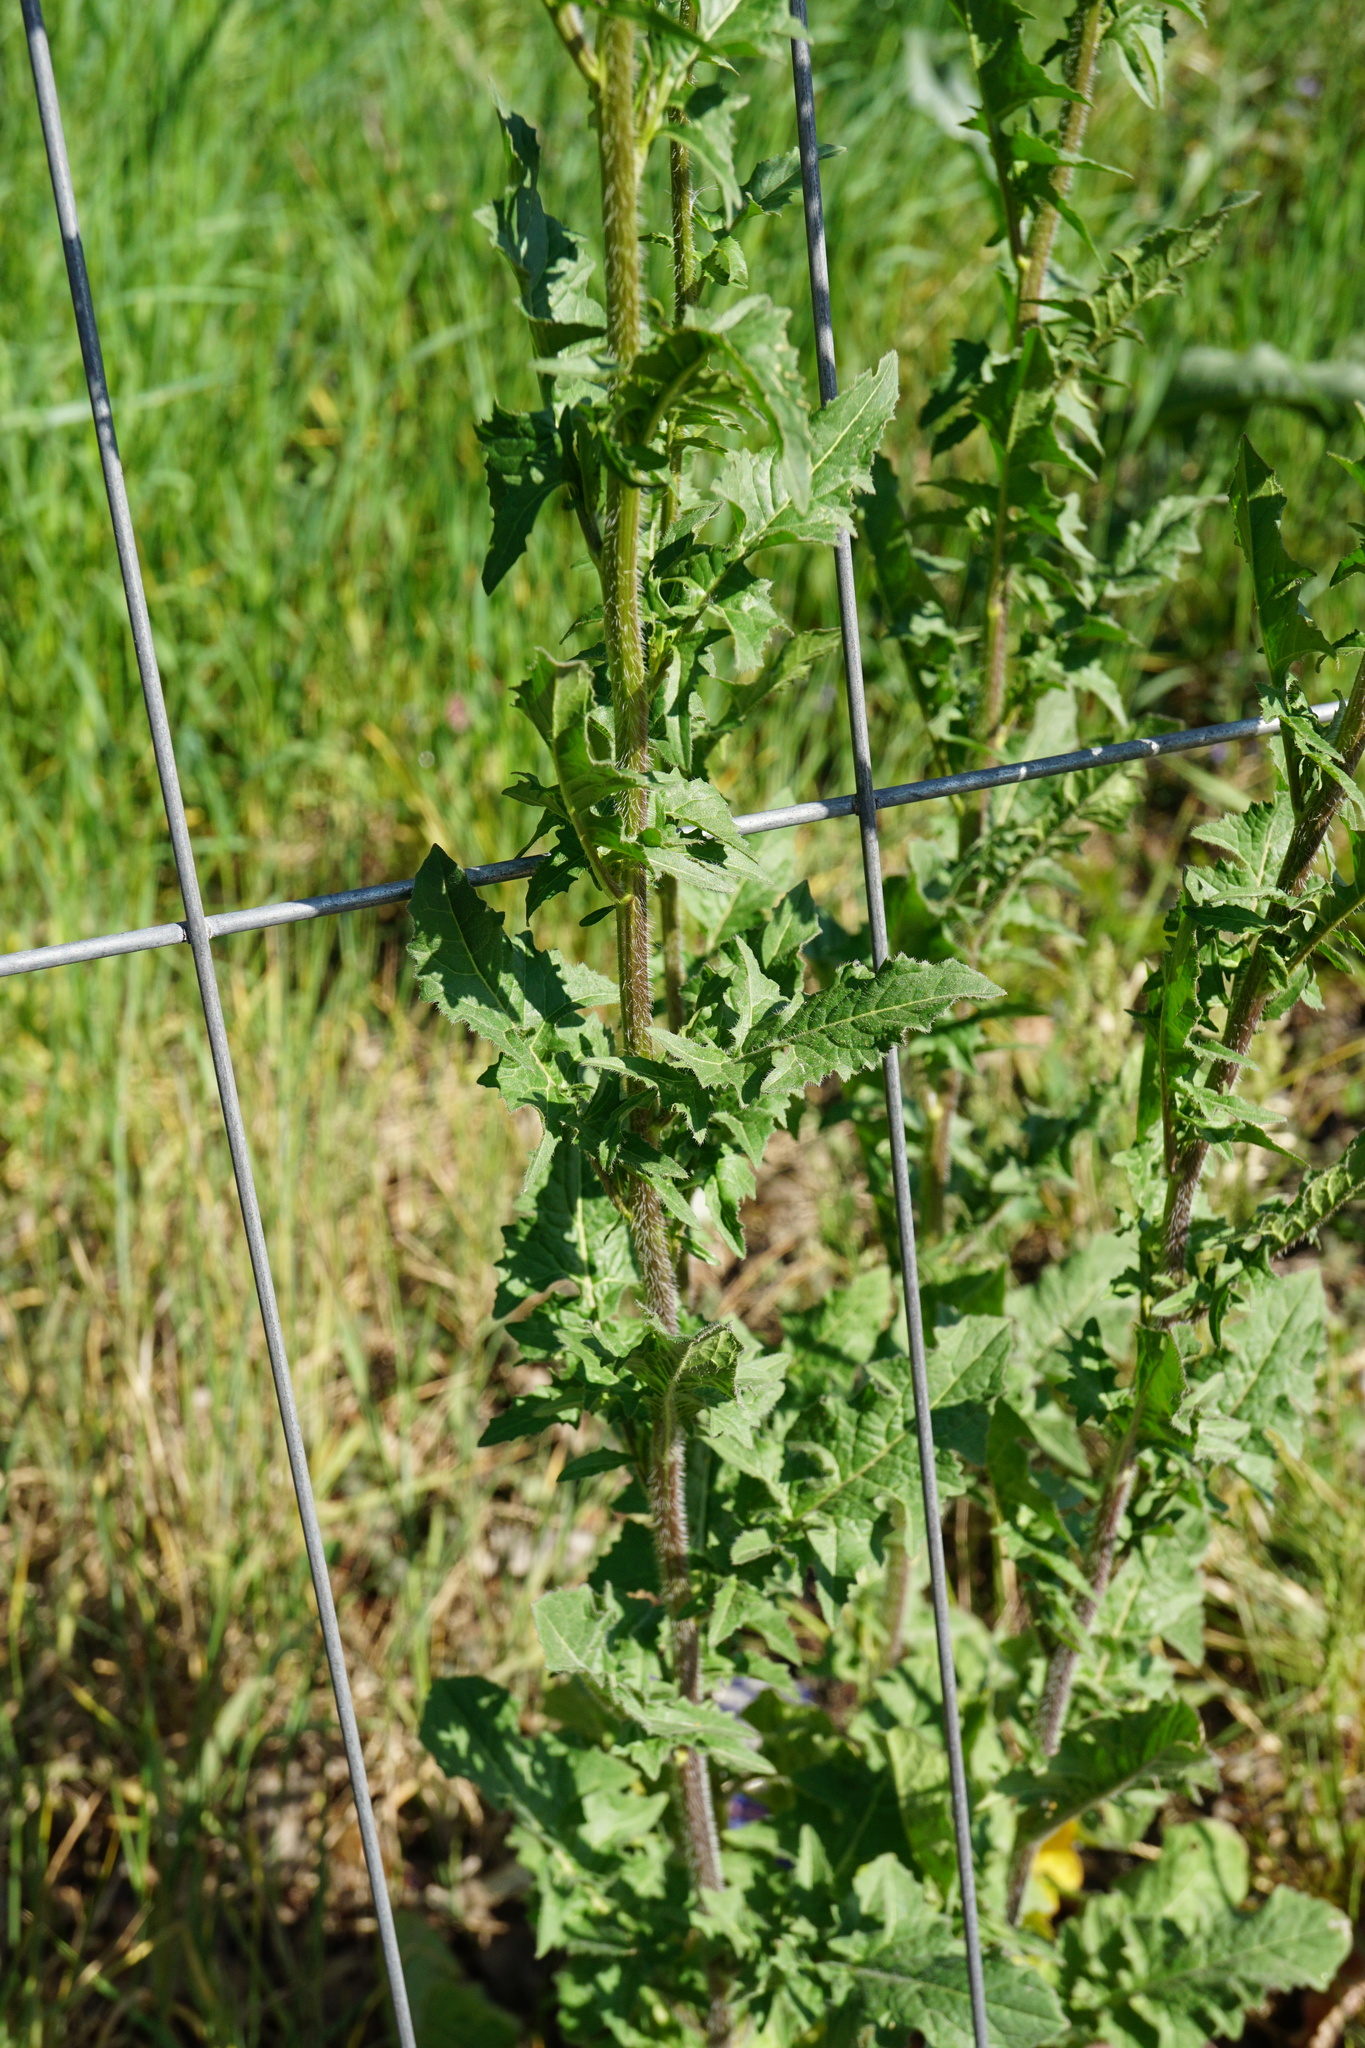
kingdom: Plantae
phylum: Tracheophyta
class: Magnoliopsida
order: Brassicales
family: Brassicaceae
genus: Sisymbrium
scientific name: Sisymbrium loeselii
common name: False london-rocket
